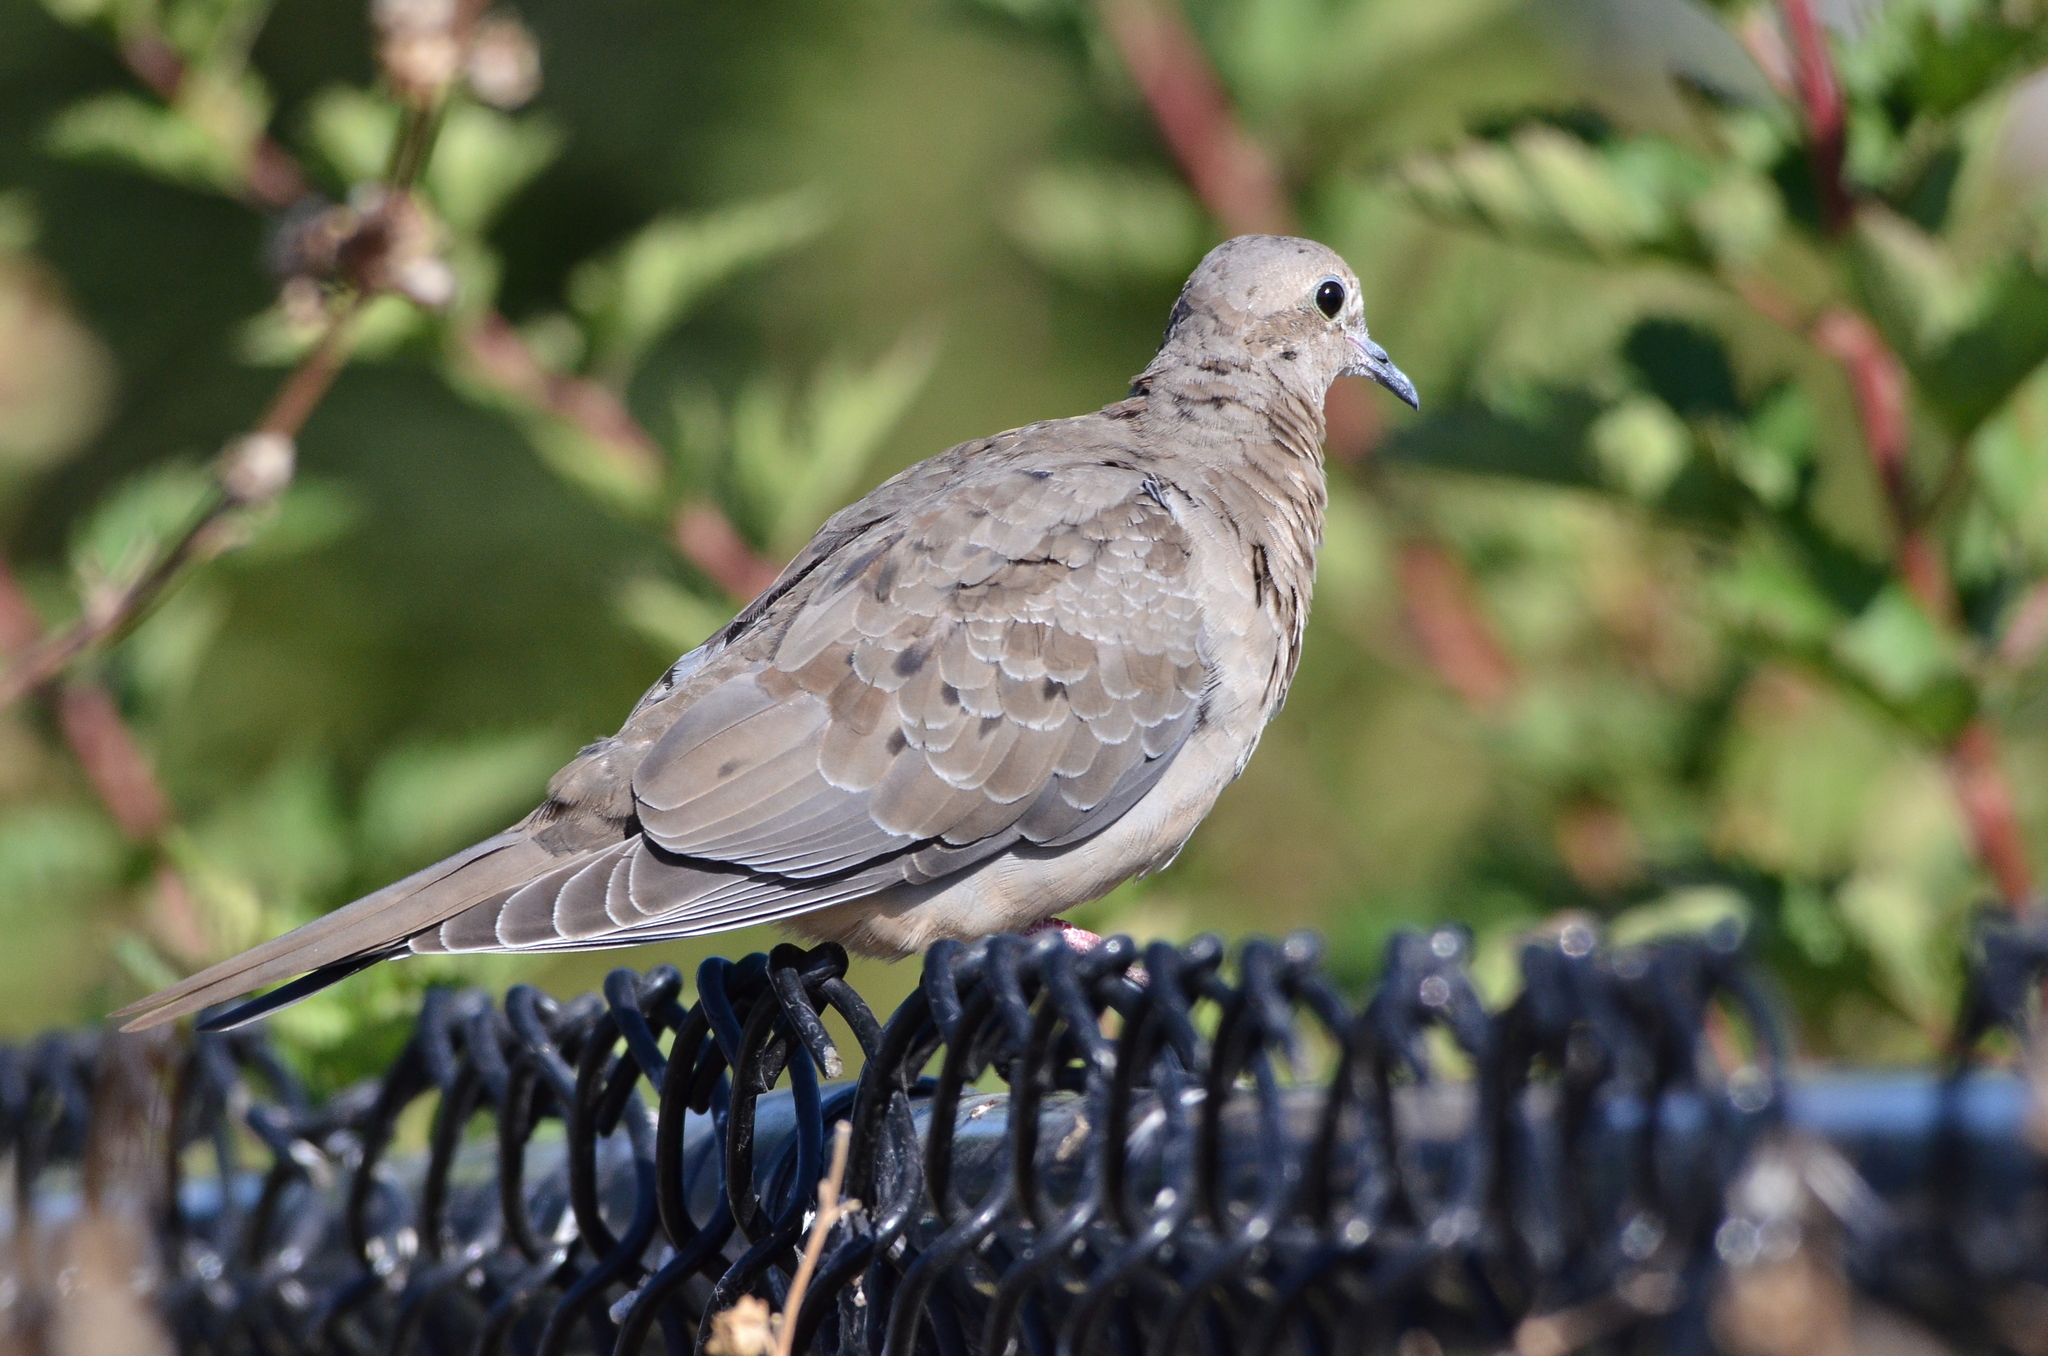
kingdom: Animalia
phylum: Chordata
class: Aves
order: Columbiformes
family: Columbidae
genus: Zenaida
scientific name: Zenaida macroura
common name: Mourning dove
